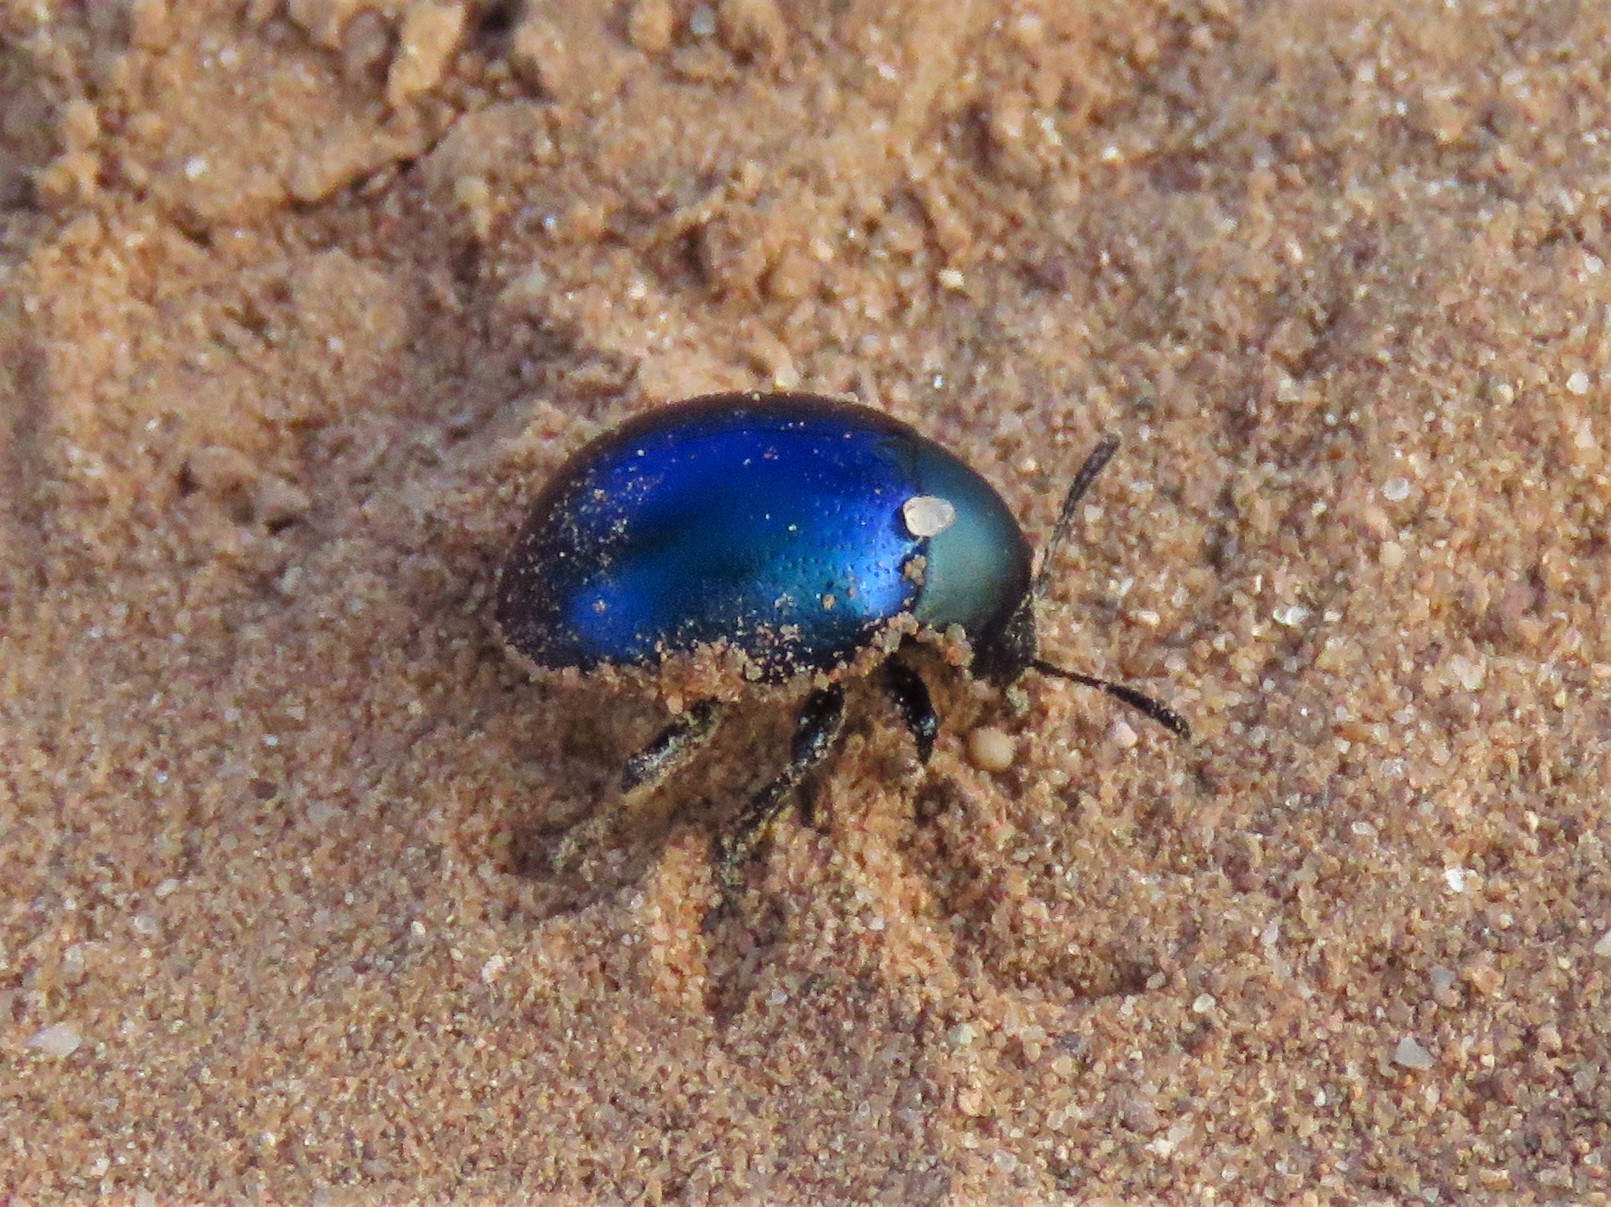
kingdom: Animalia
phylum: Arthropoda
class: Insecta
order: Coleoptera
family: Chrysomelidae
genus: Leptinotarsa
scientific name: Leptinotarsa haldemani
